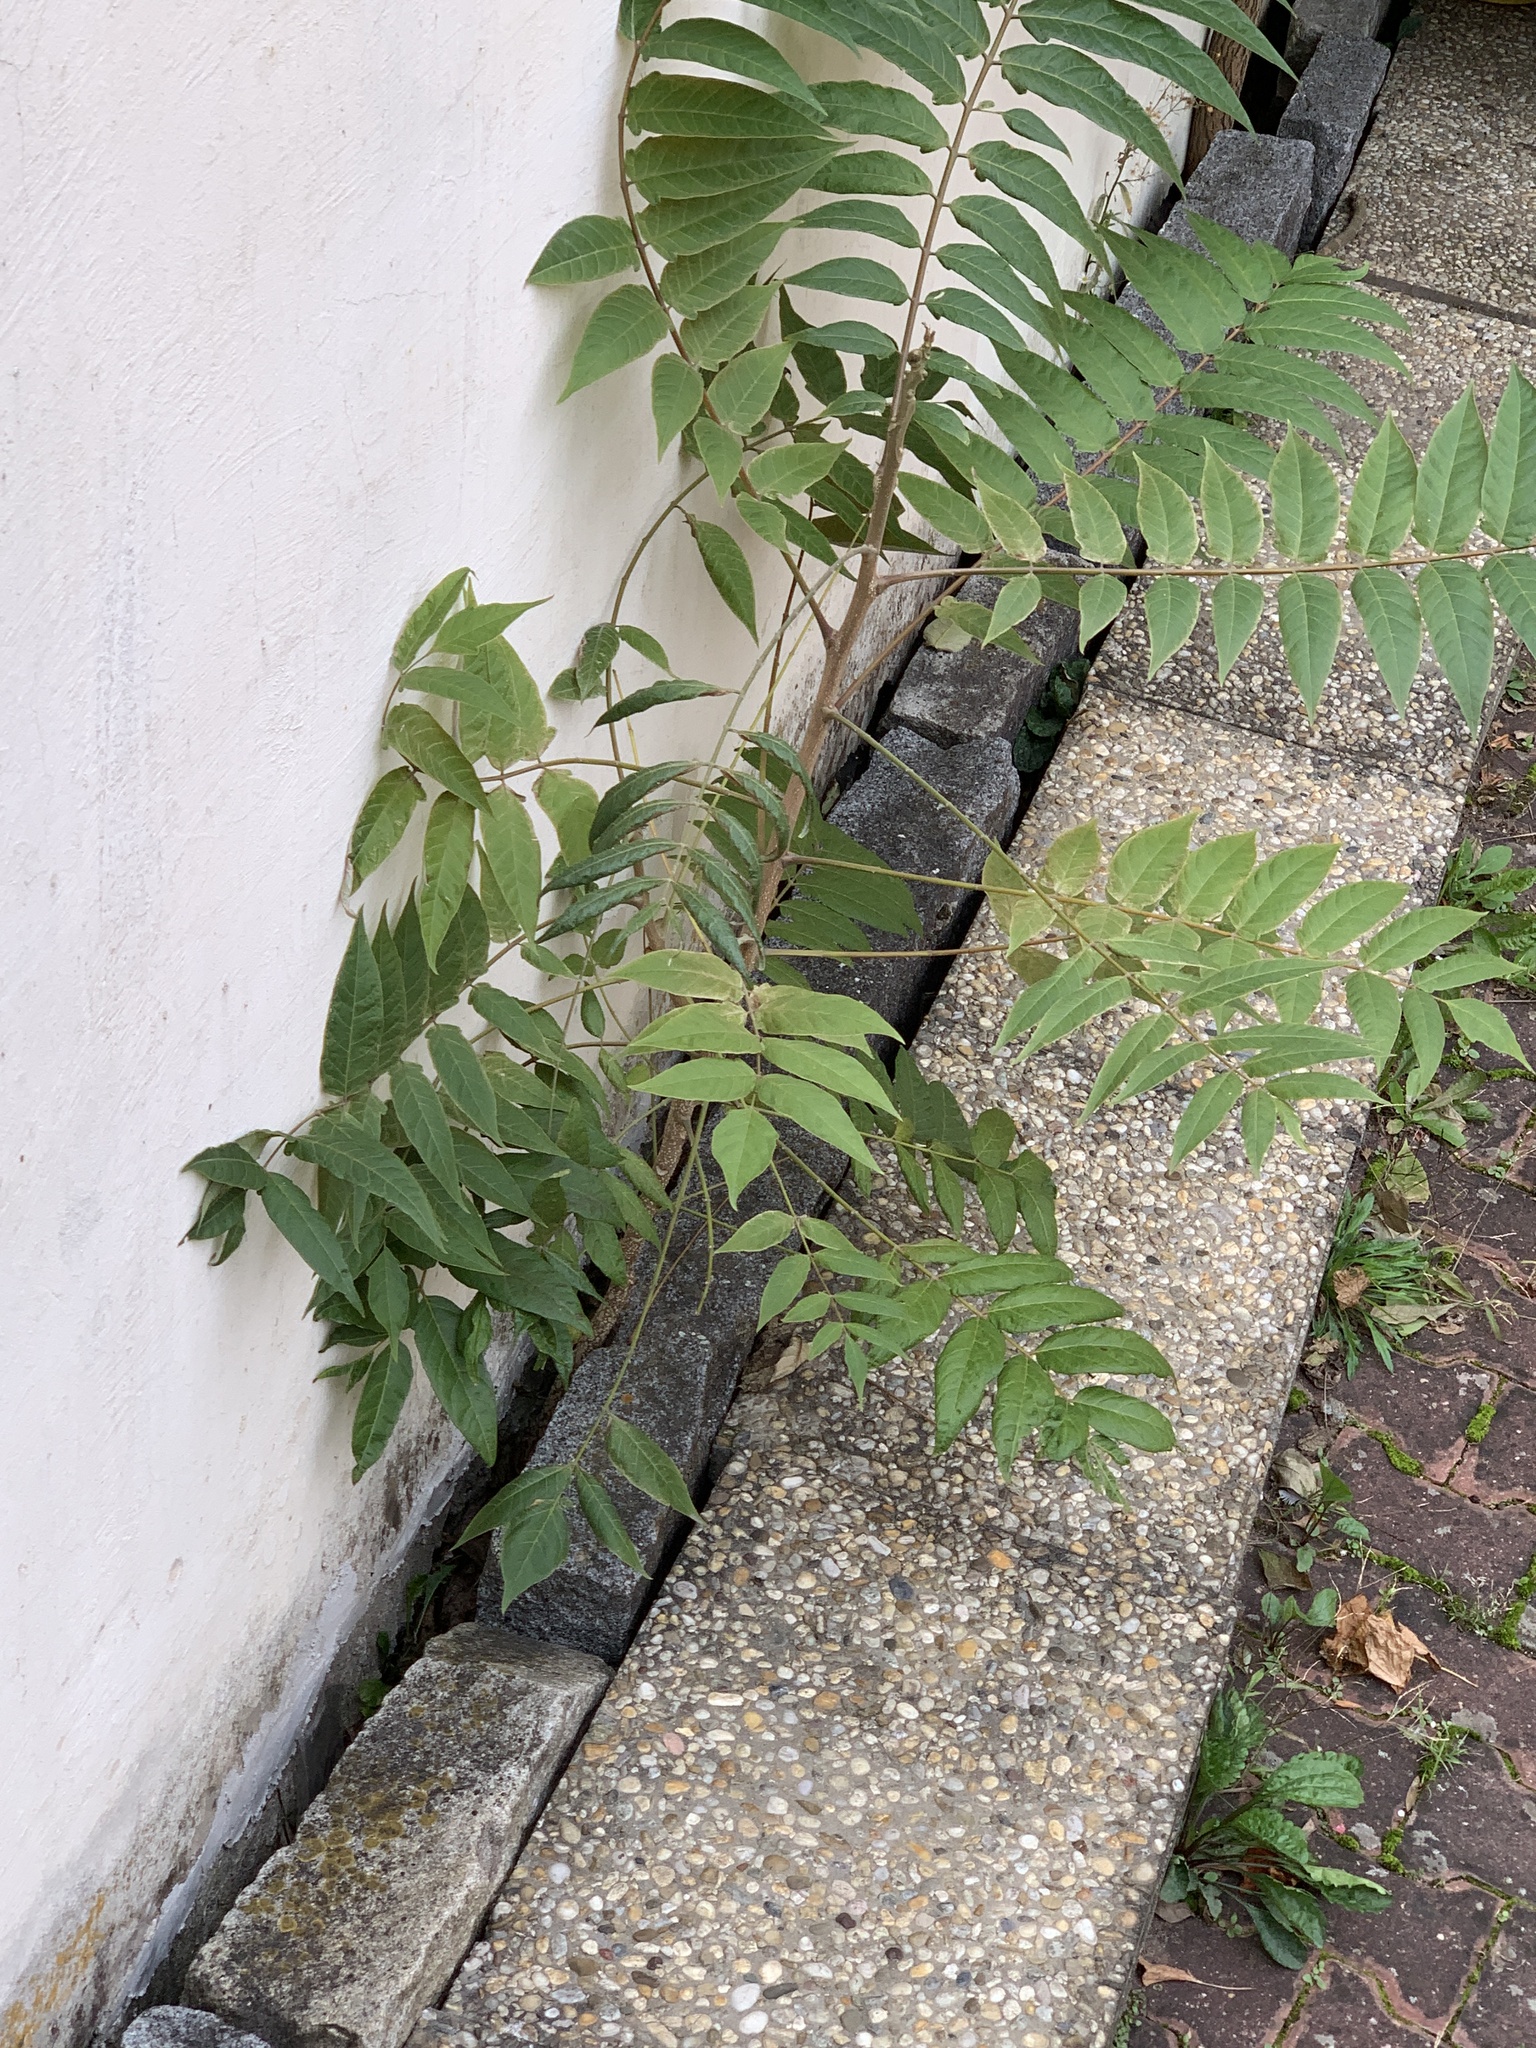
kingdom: Plantae
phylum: Tracheophyta
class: Magnoliopsida
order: Sapindales
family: Simaroubaceae
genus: Ailanthus
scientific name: Ailanthus altissima
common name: Tree-of-heaven
